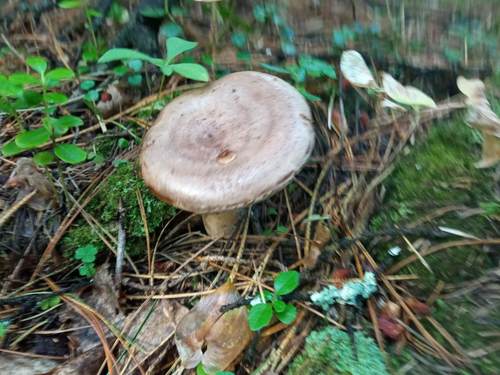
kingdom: Fungi
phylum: Basidiomycota
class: Agaricomycetes
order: Russulales
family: Russulaceae
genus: Lactarius
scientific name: Lactarius trivialis
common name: Tacked milkcap
